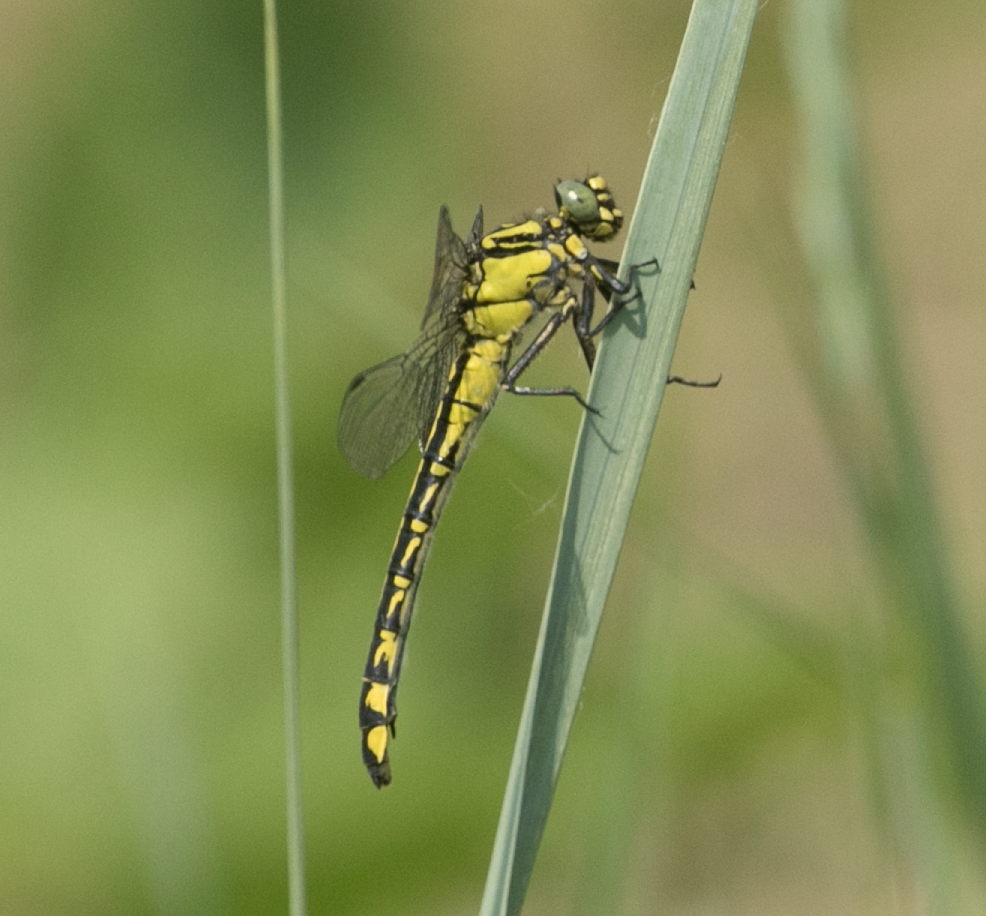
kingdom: Animalia
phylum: Arthropoda
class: Insecta
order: Odonata
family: Gomphidae
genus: Gomphus
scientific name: Gomphus vulgatissimus
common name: Club-tailed dragonfly
